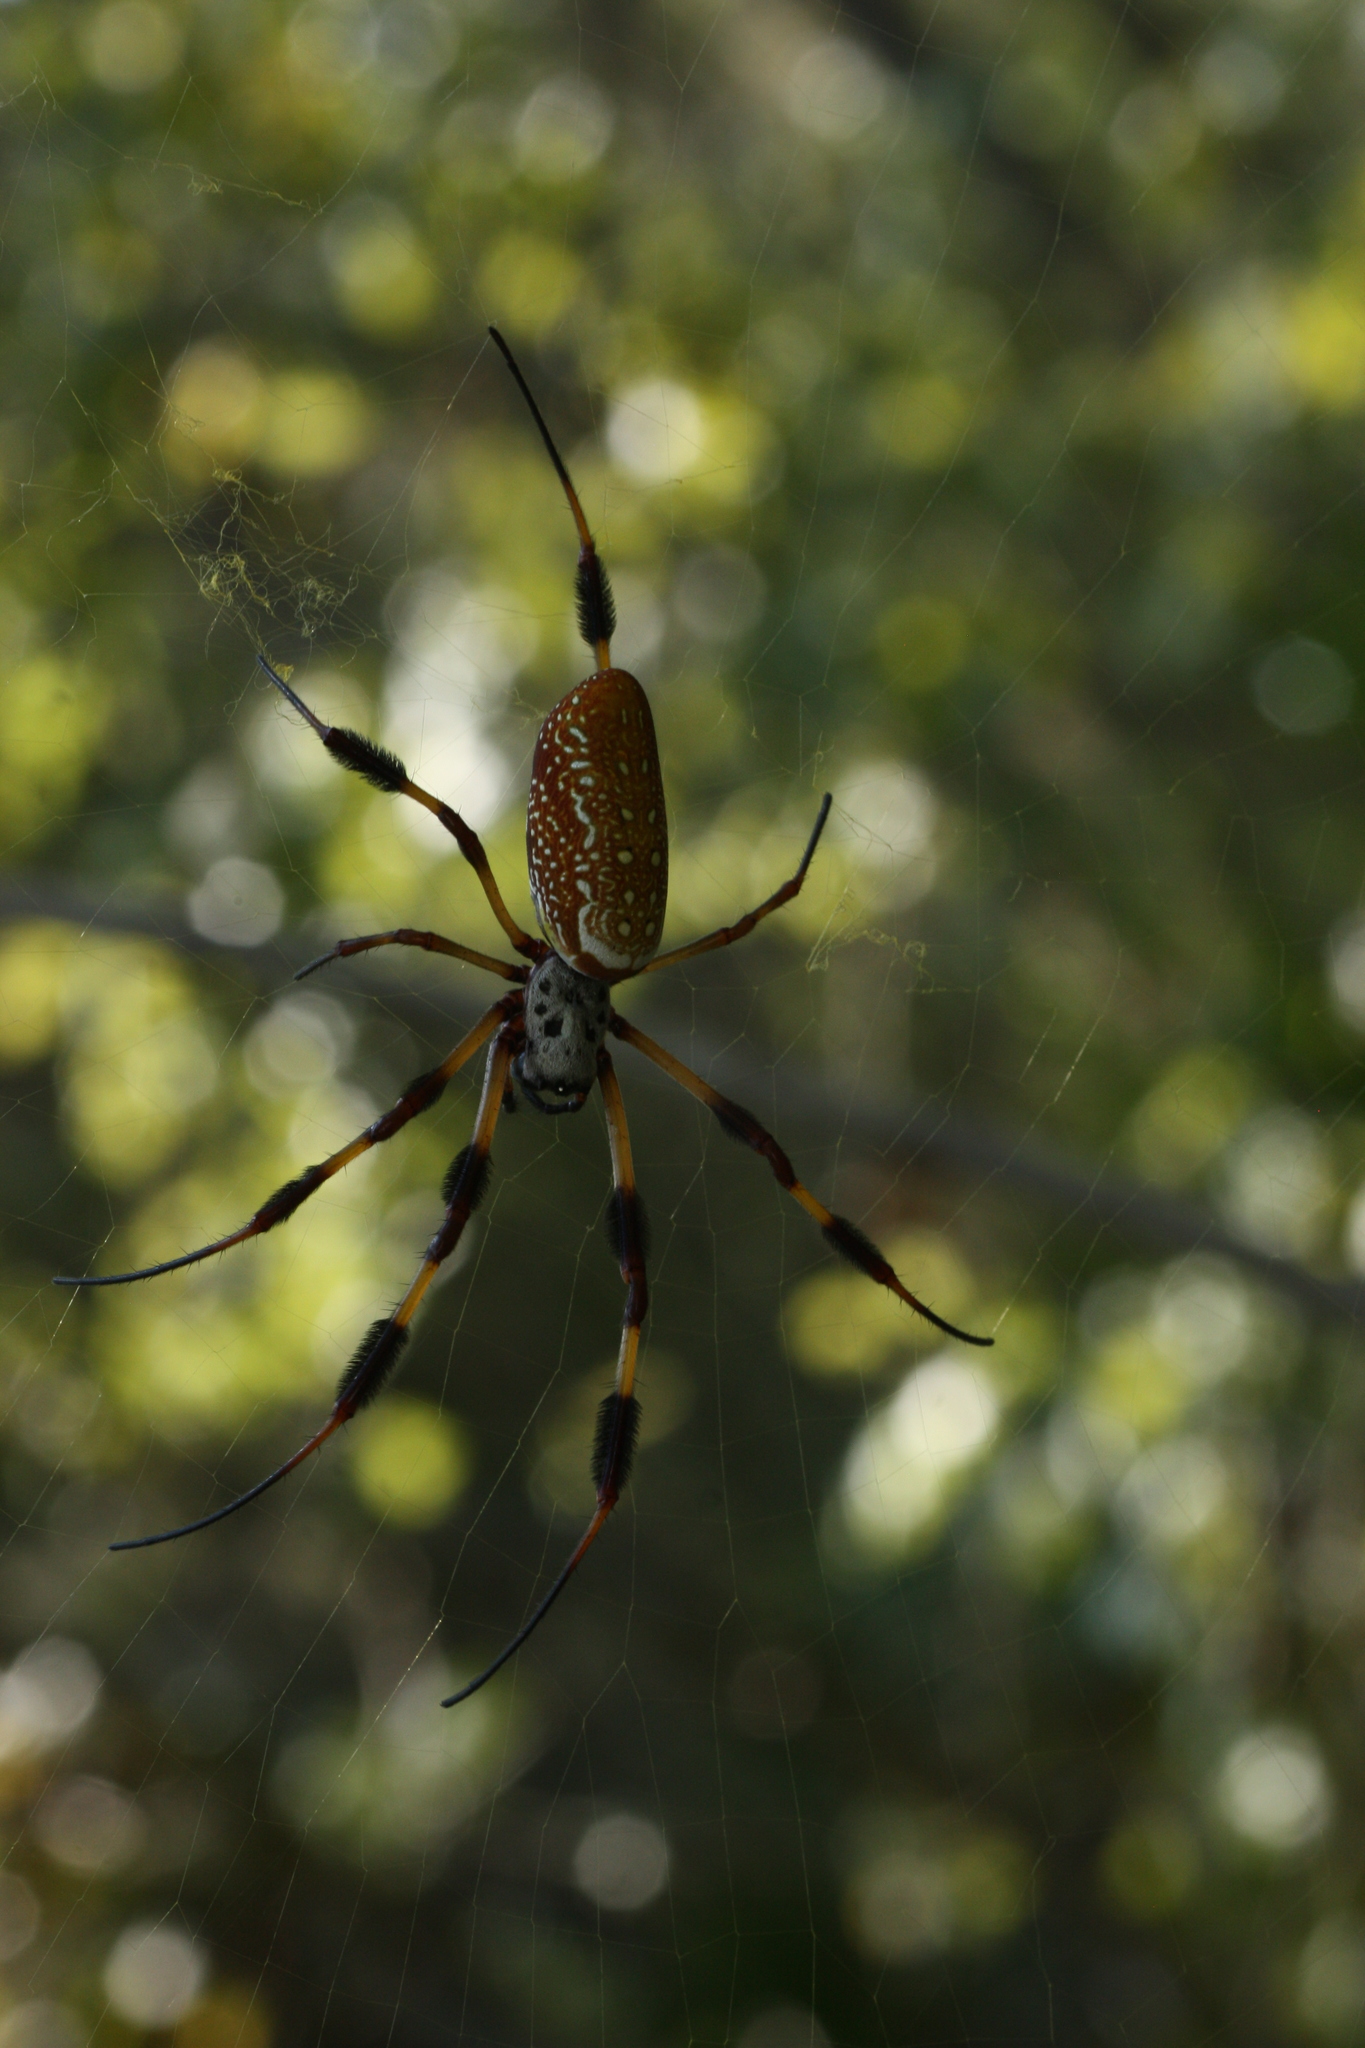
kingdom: Animalia
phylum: Arthropoda
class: Arachnida
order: Araneae
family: Araneidae
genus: Trichonephila
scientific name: Trichonephila clavipes
